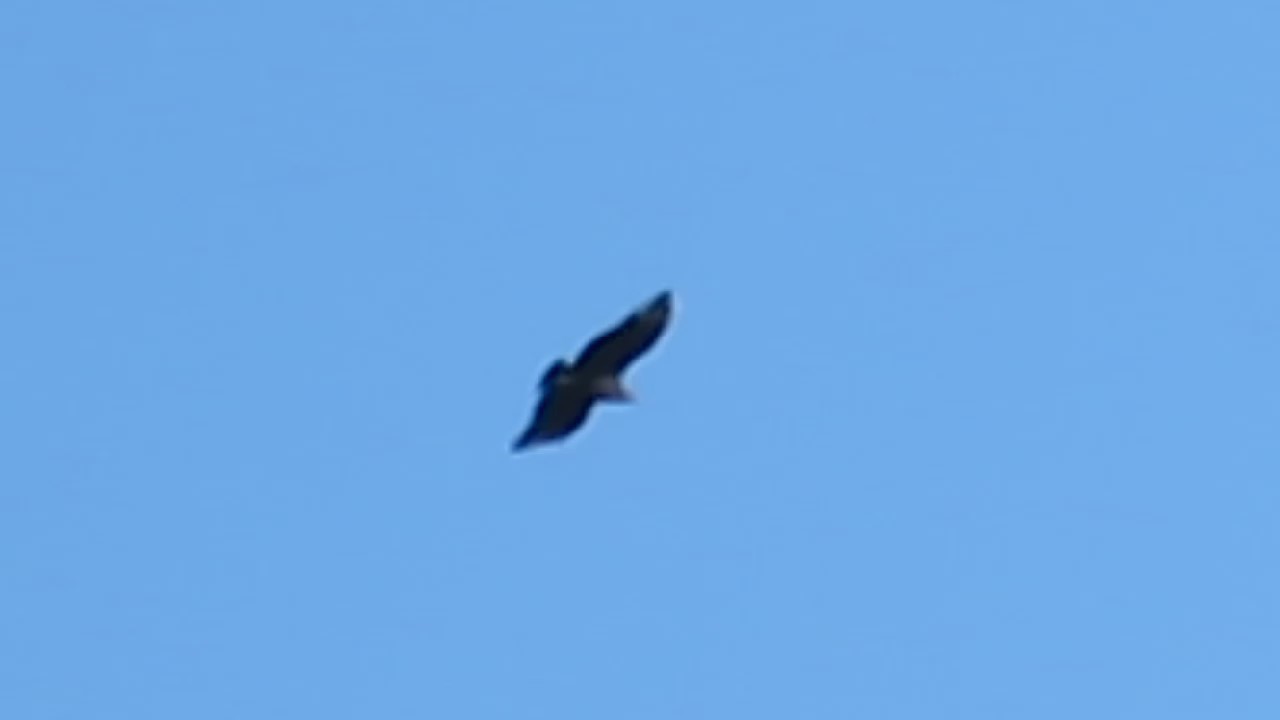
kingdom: Animalia
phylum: Chordata
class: Aves
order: Accipitriformes
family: Cathartidae
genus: Coragyps
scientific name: Coragyps atratus
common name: Black vulture
